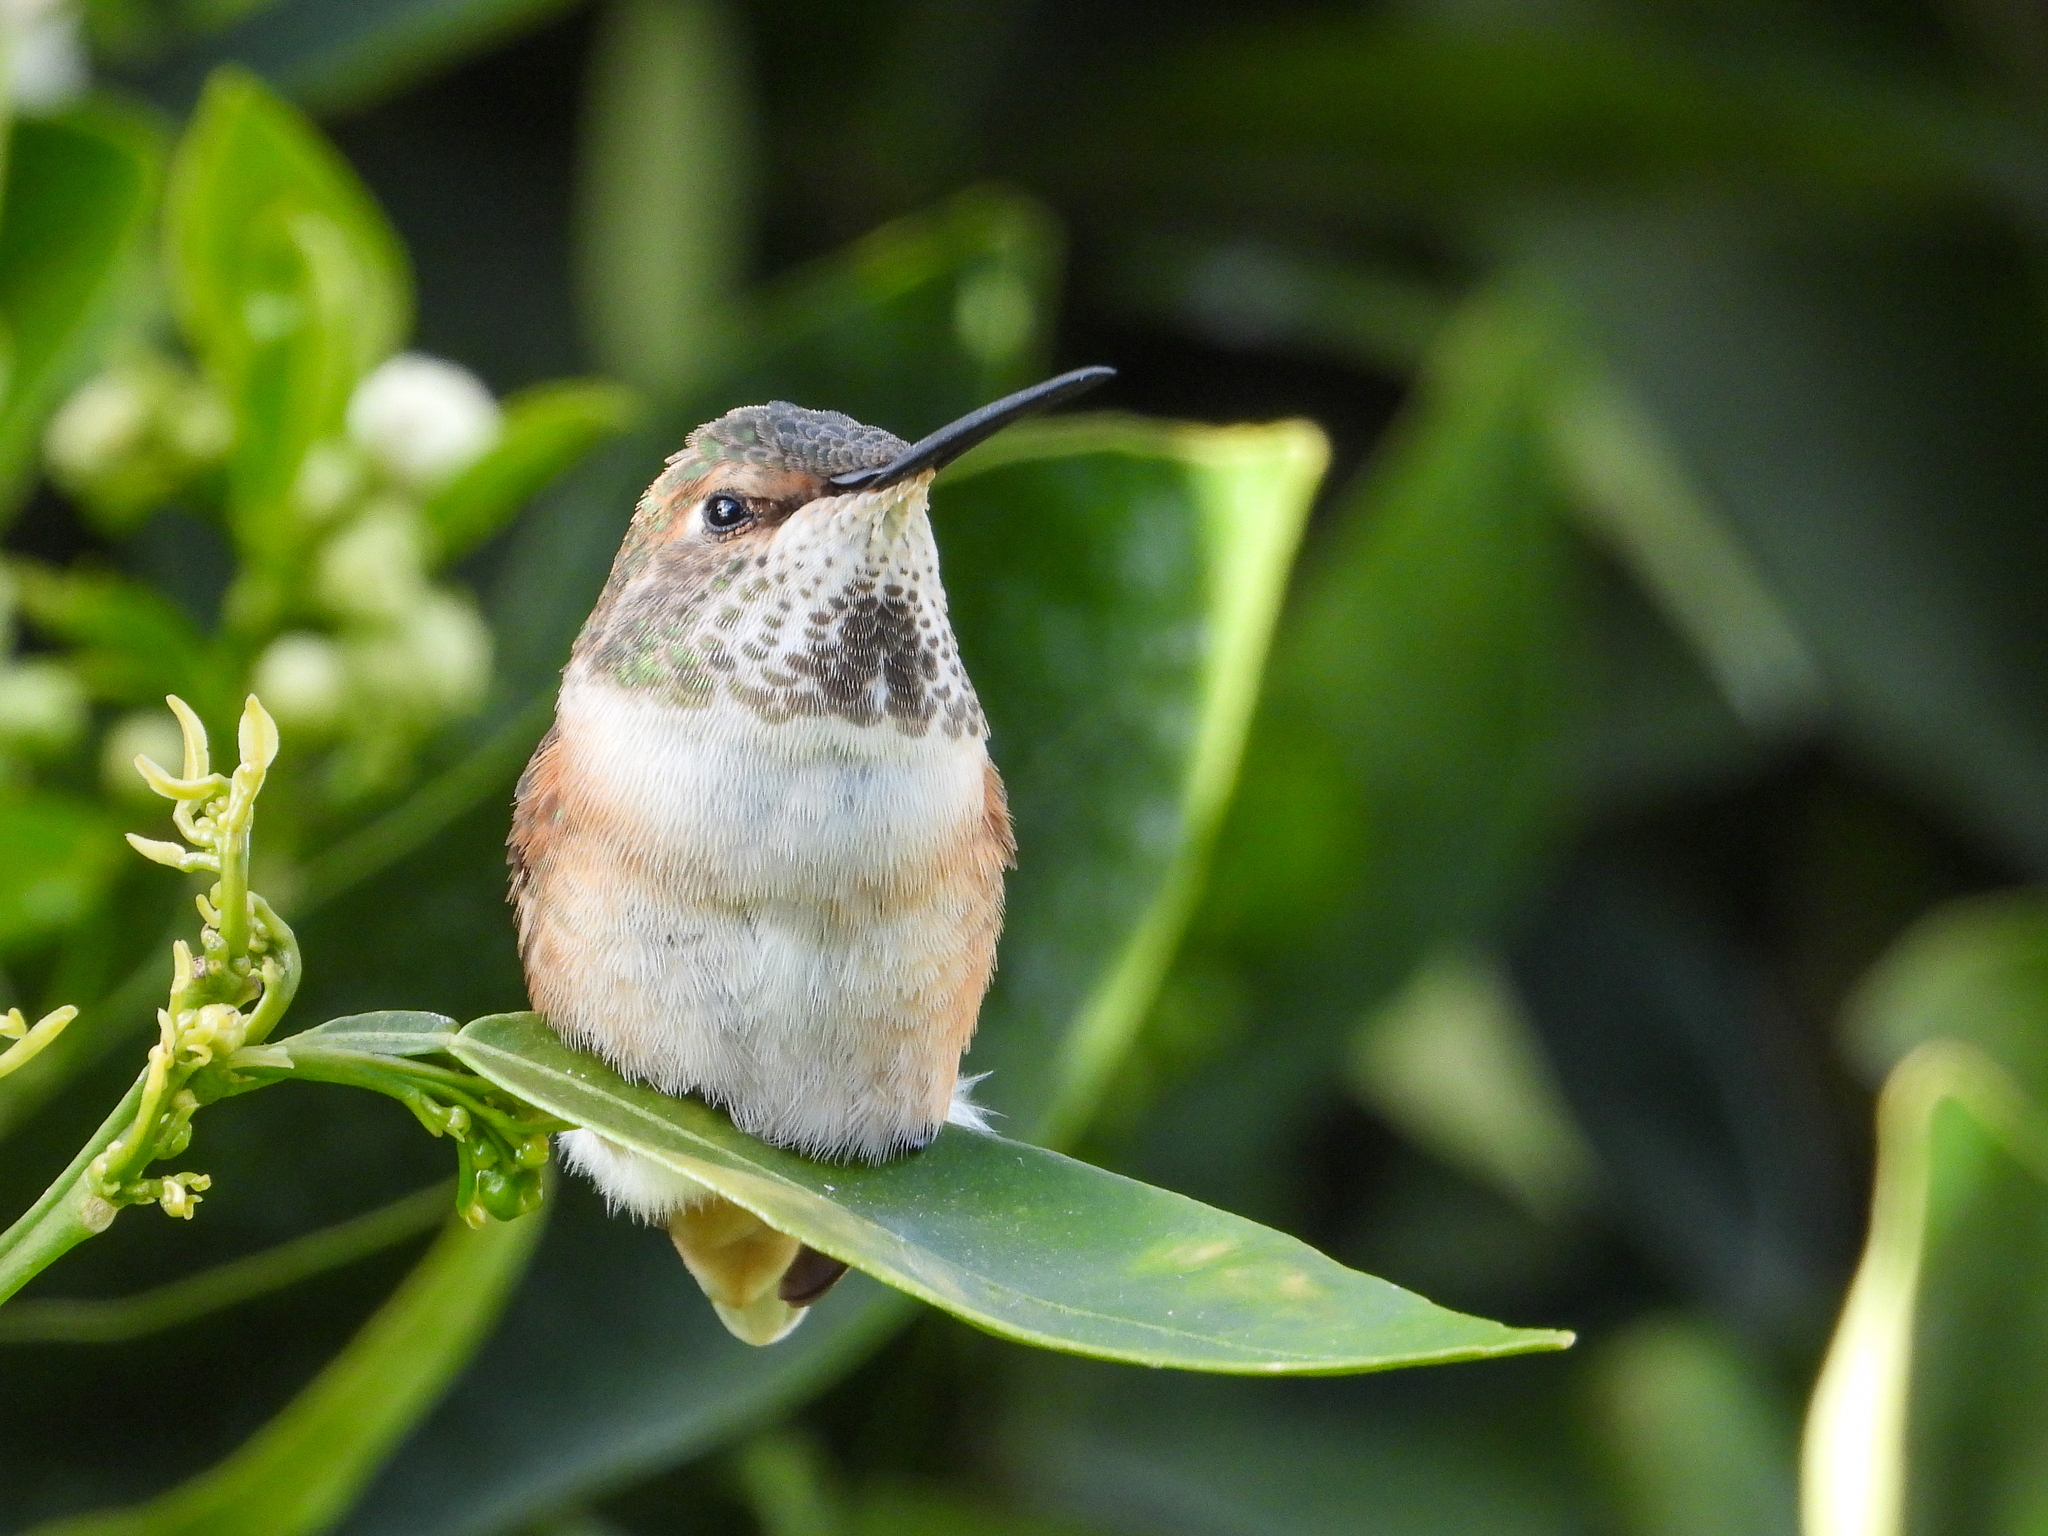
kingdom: Animalia
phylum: Chordata
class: Aves
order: Apodiformes
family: Trochilidae
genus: Selasphorus
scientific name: Selasphorus sasin
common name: Allen's hummingbird
